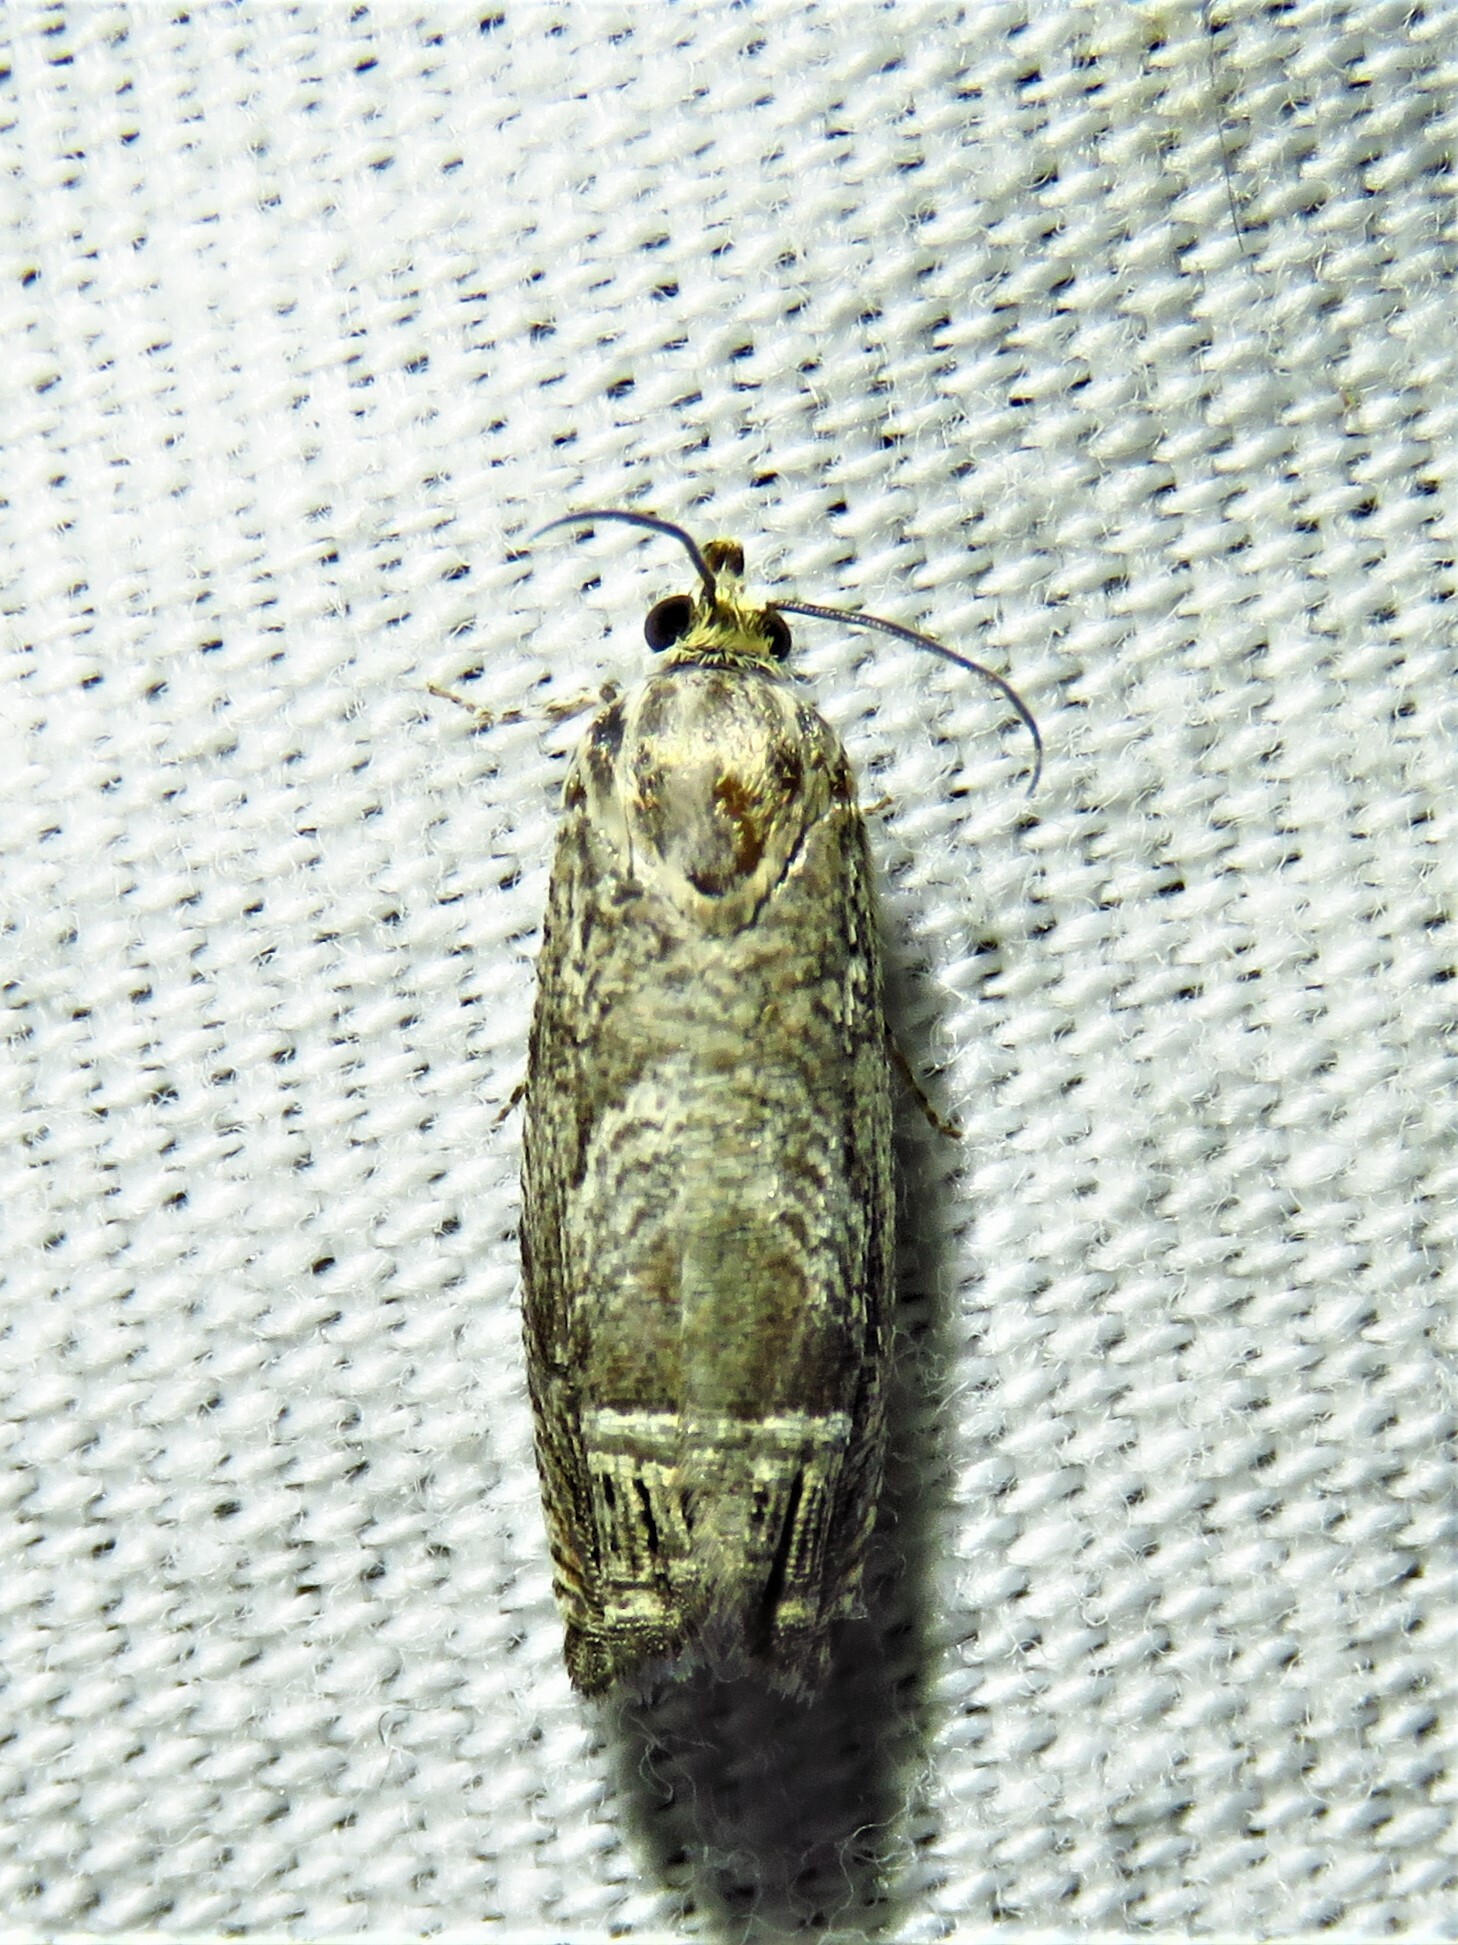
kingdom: Animalia
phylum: Arthropoda
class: Insecta
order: Lepidoptera
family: Tortricidae
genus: Ofatulena
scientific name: Ofatulena duodecemstriata
